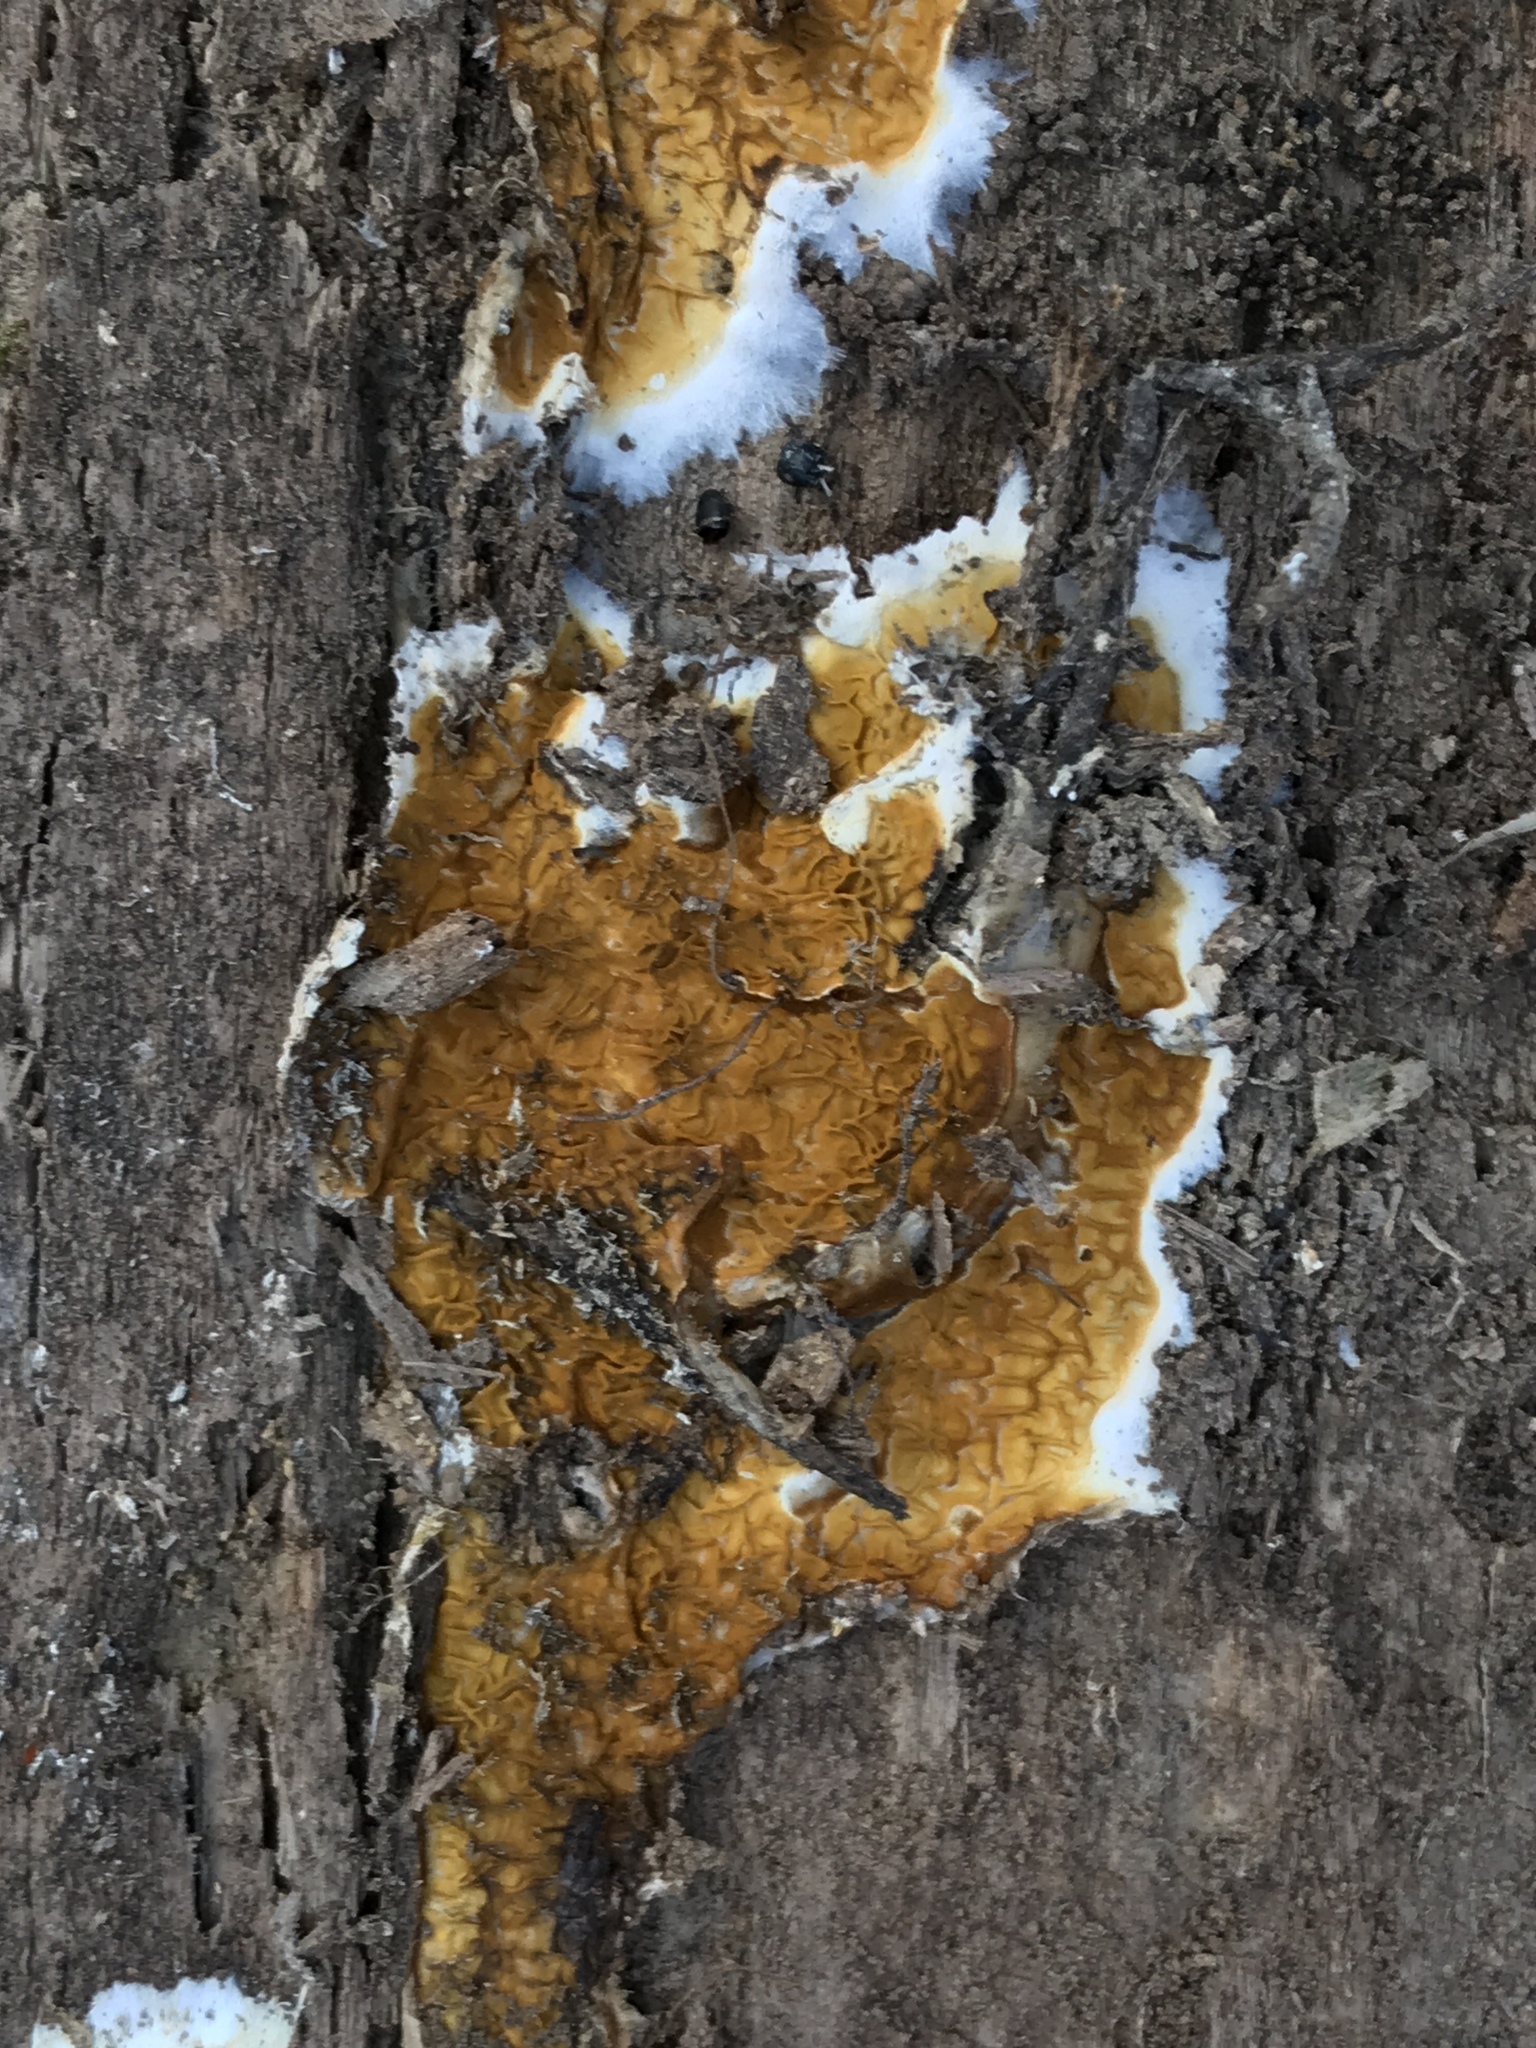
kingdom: Fungi
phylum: Basidiomycota
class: Agaricomycetes
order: Boletales
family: Serpulaceae
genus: Serpula
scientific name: Serpula himantioides
